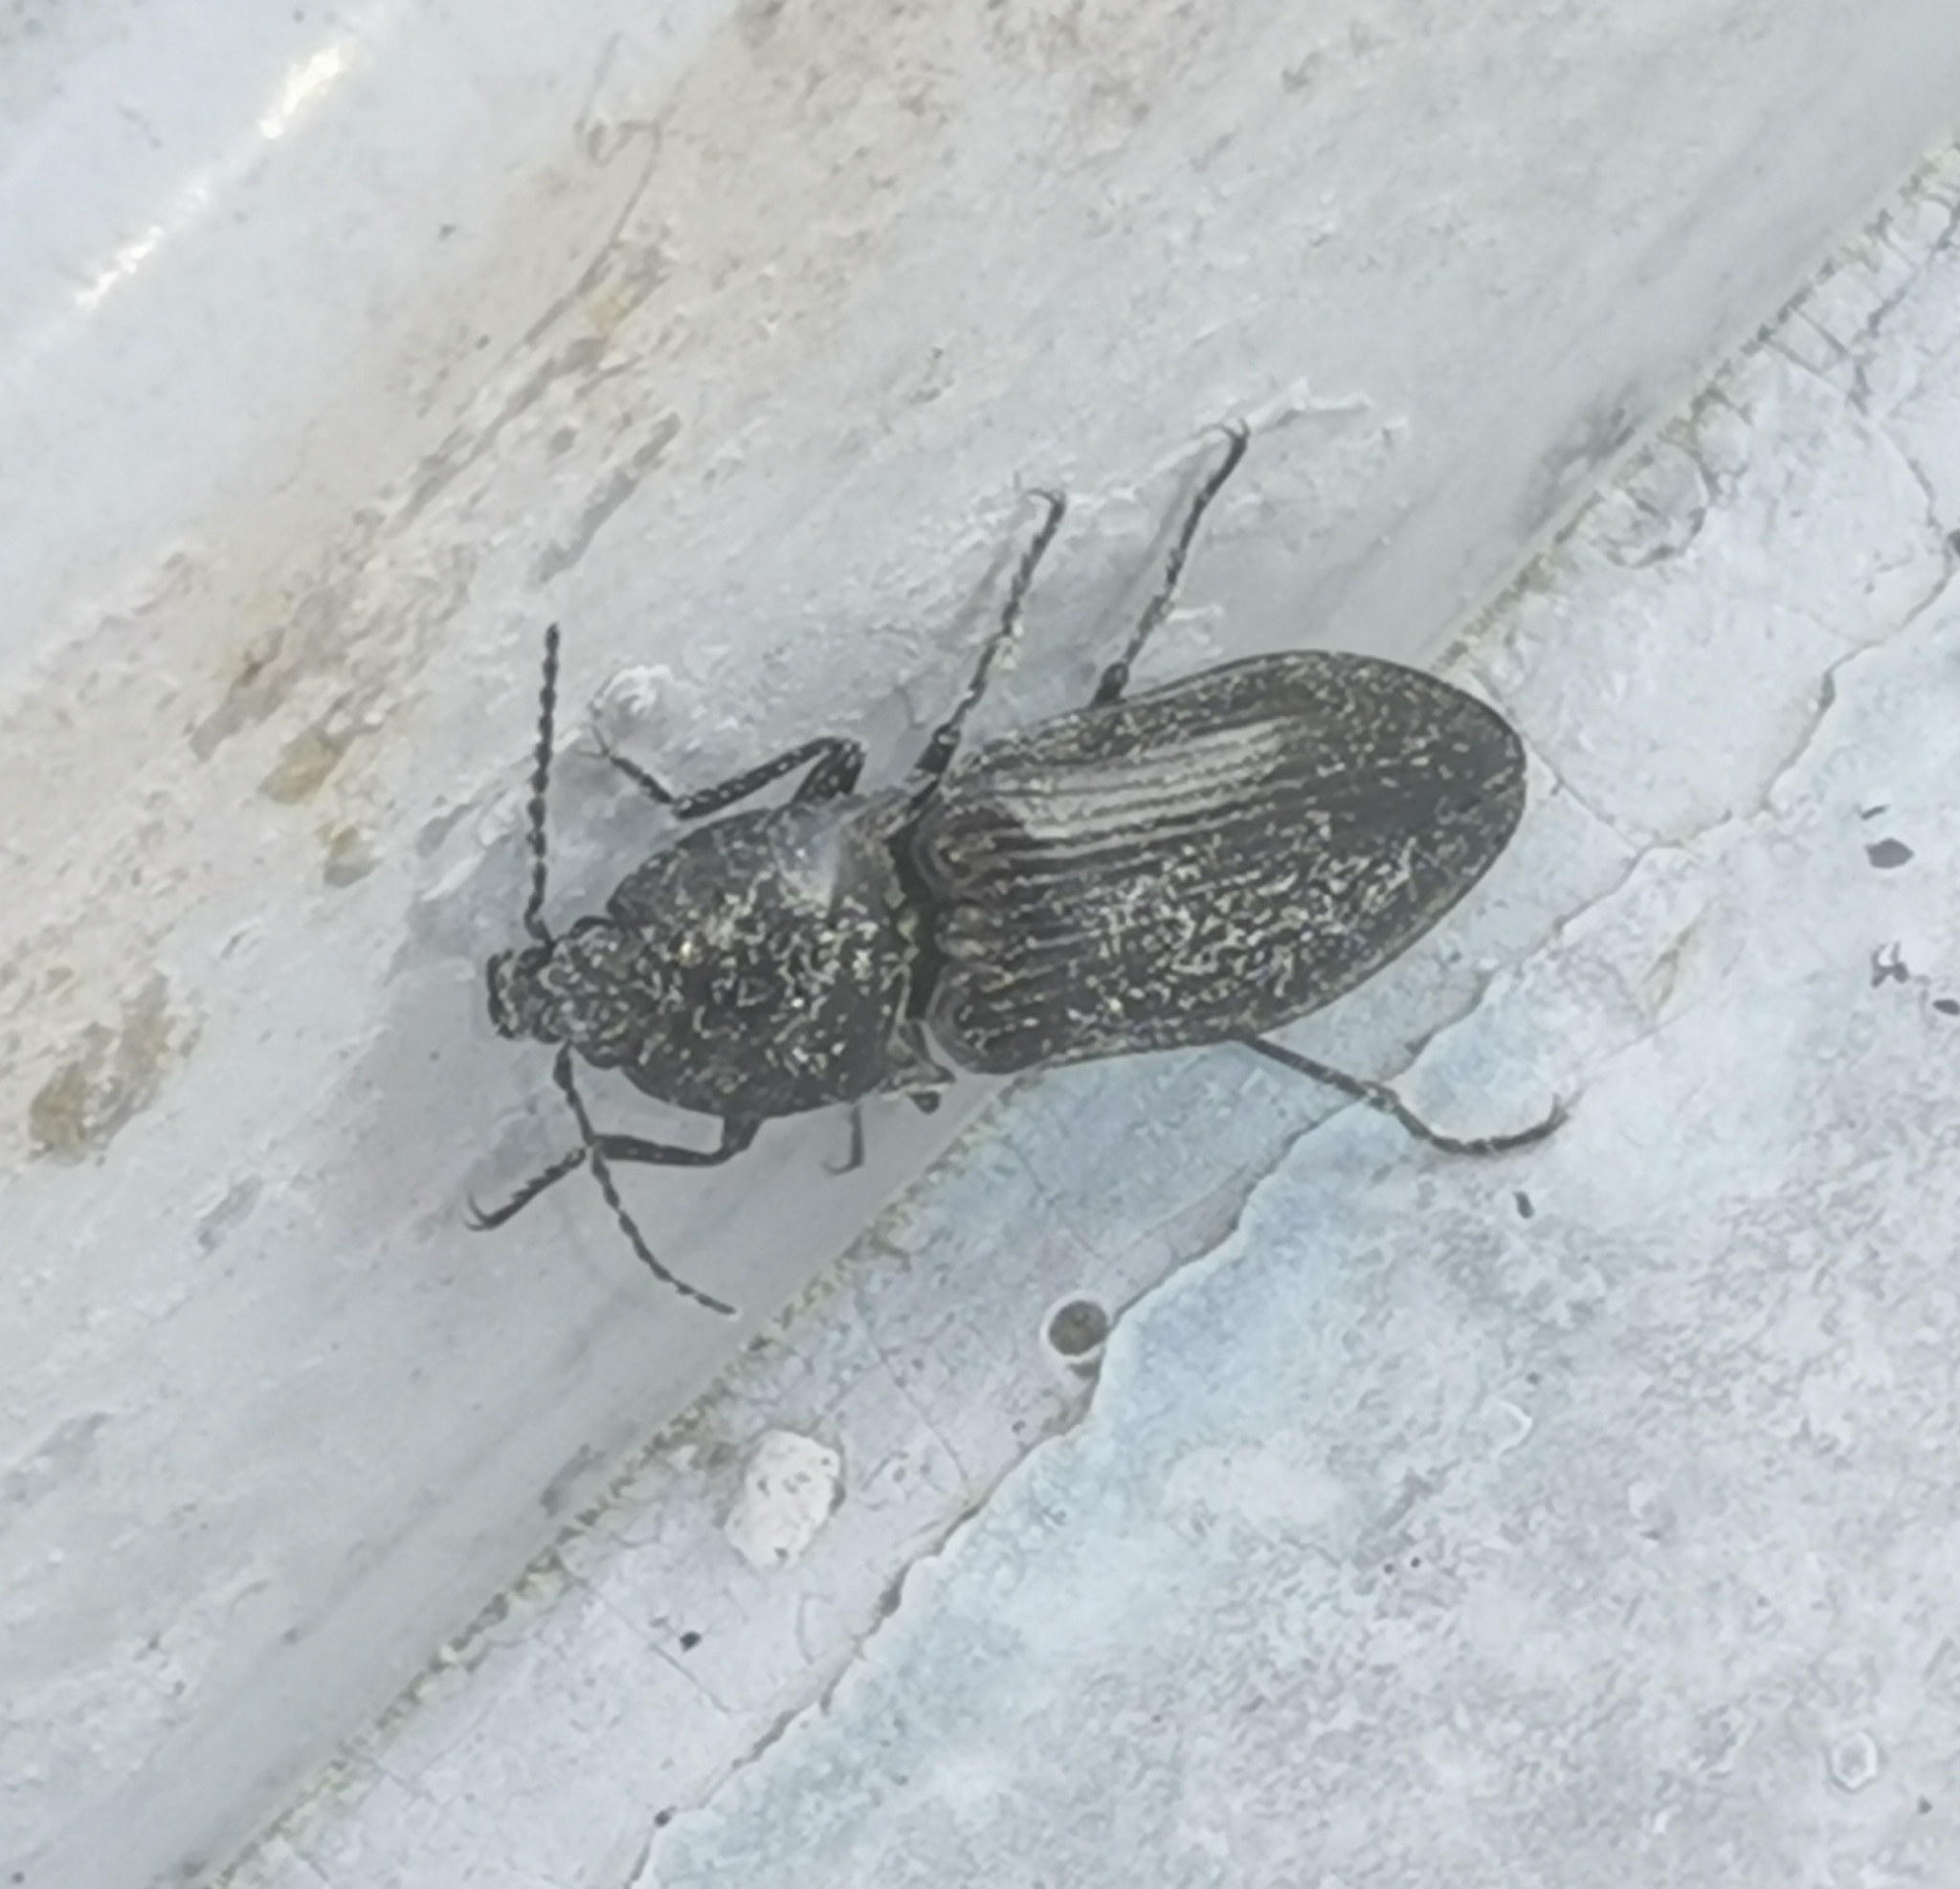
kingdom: Animalia
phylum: Arthropoda
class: Insecta
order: Coleoptera
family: Elateridae
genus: Paraphotistus
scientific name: Paraphotistus impressus
